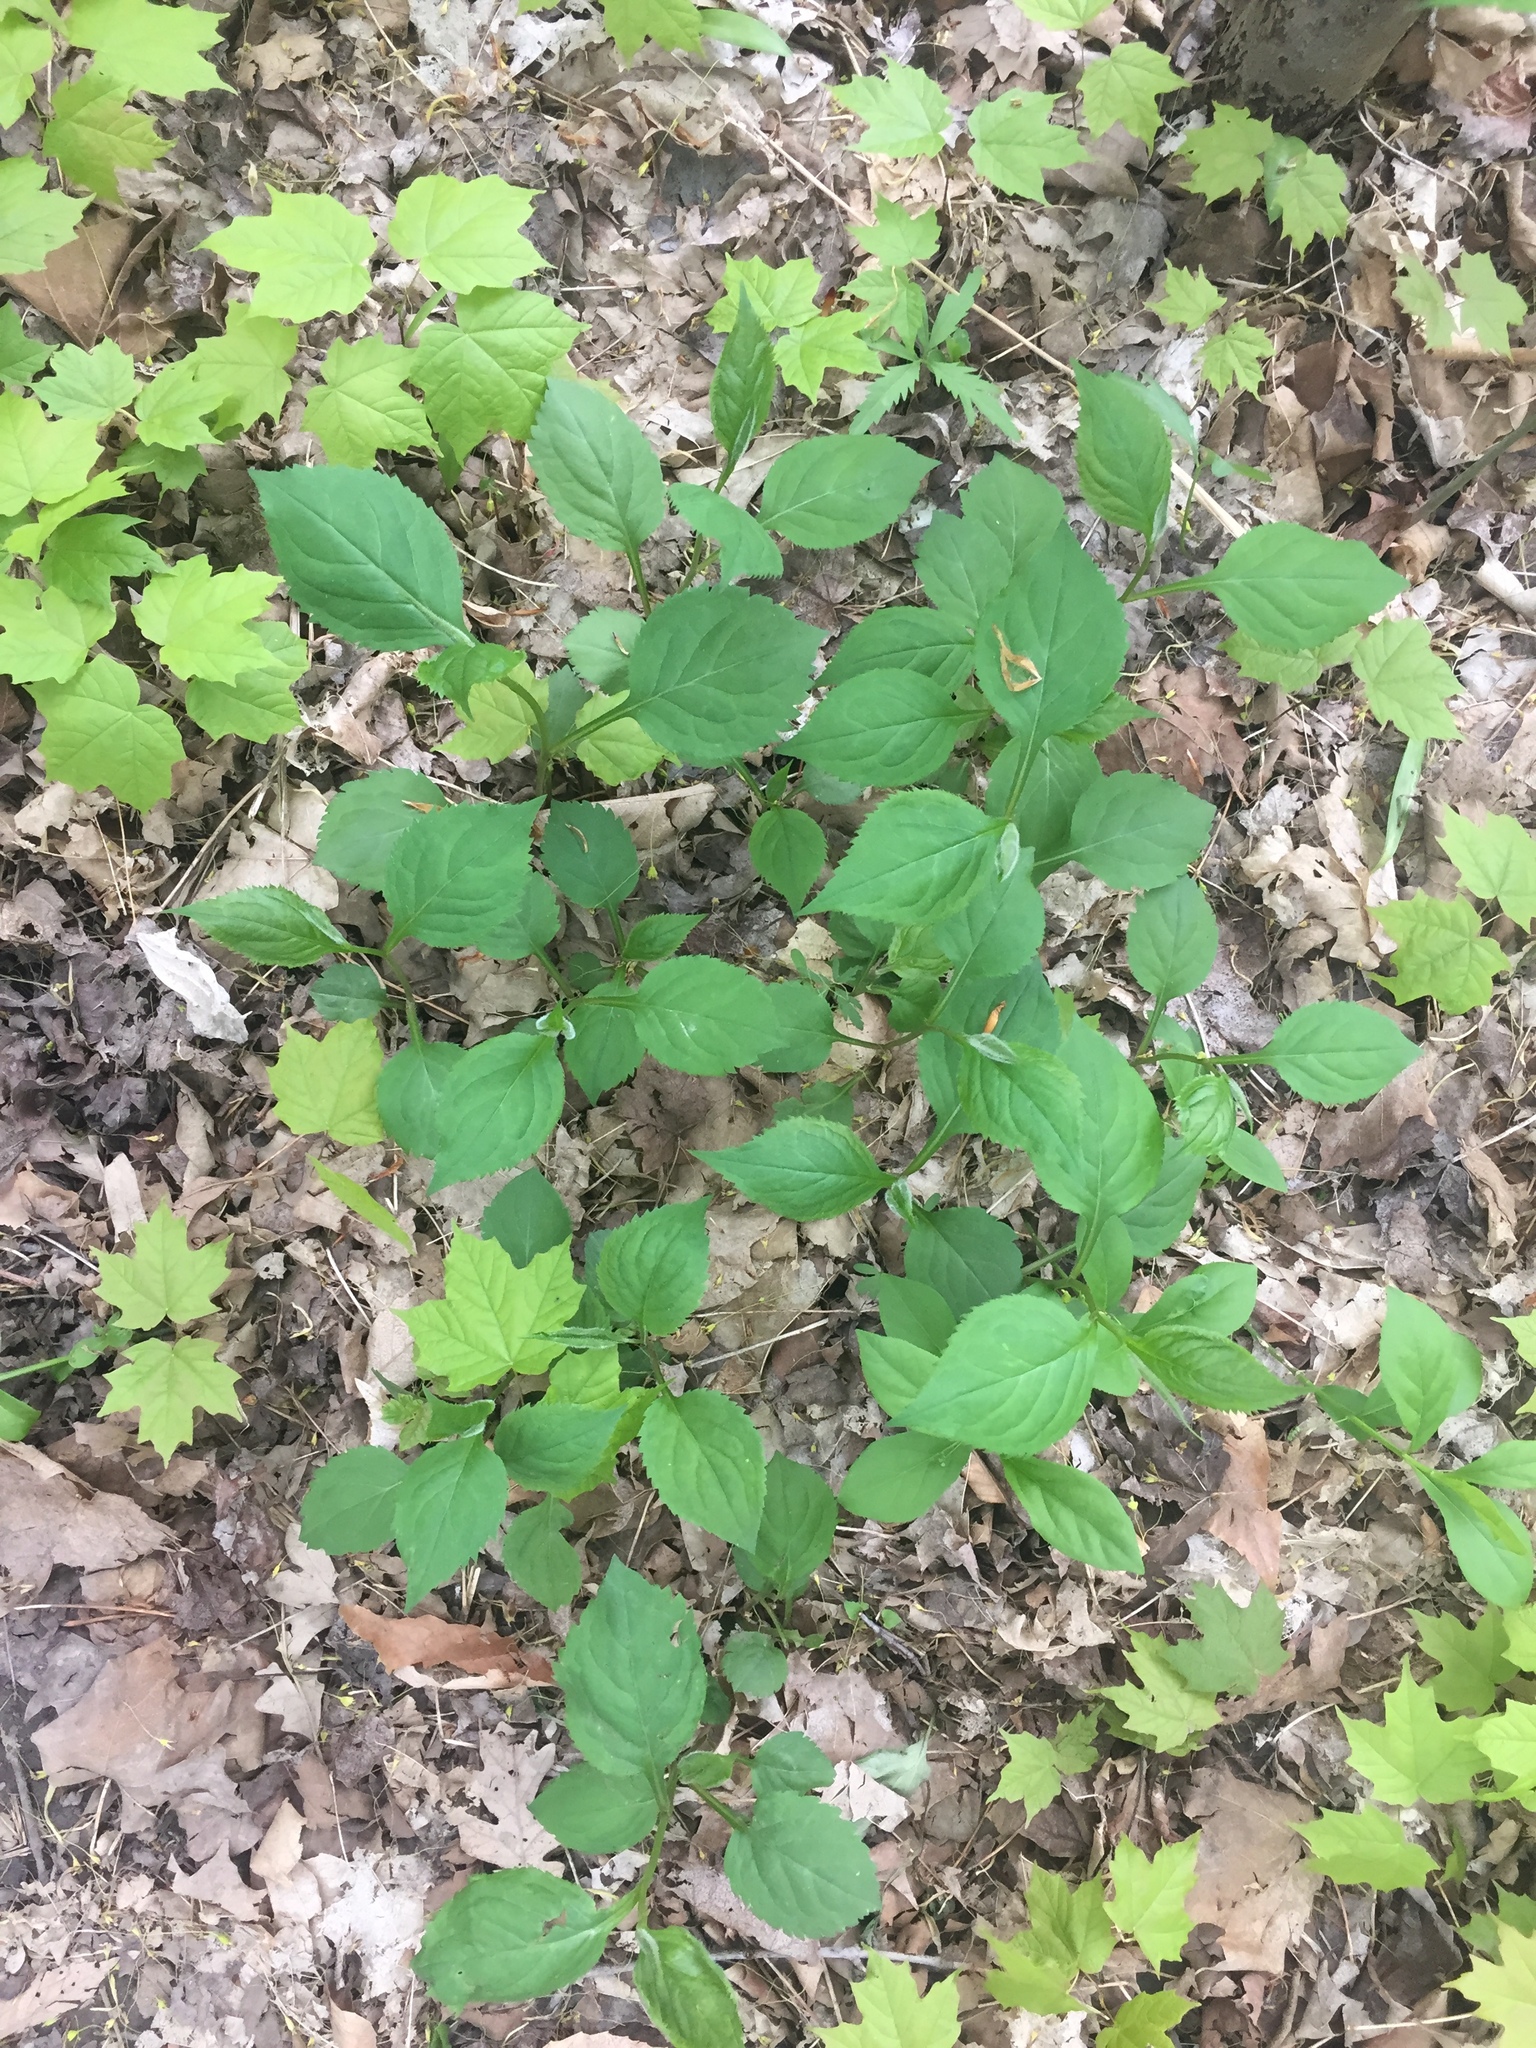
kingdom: Plantae
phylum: Tracheophyta
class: Magnoliopsida
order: Asterales
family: Asteraceae
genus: Solidago
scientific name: Solidago flexicaulis
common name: Zig-zag goldenrod
